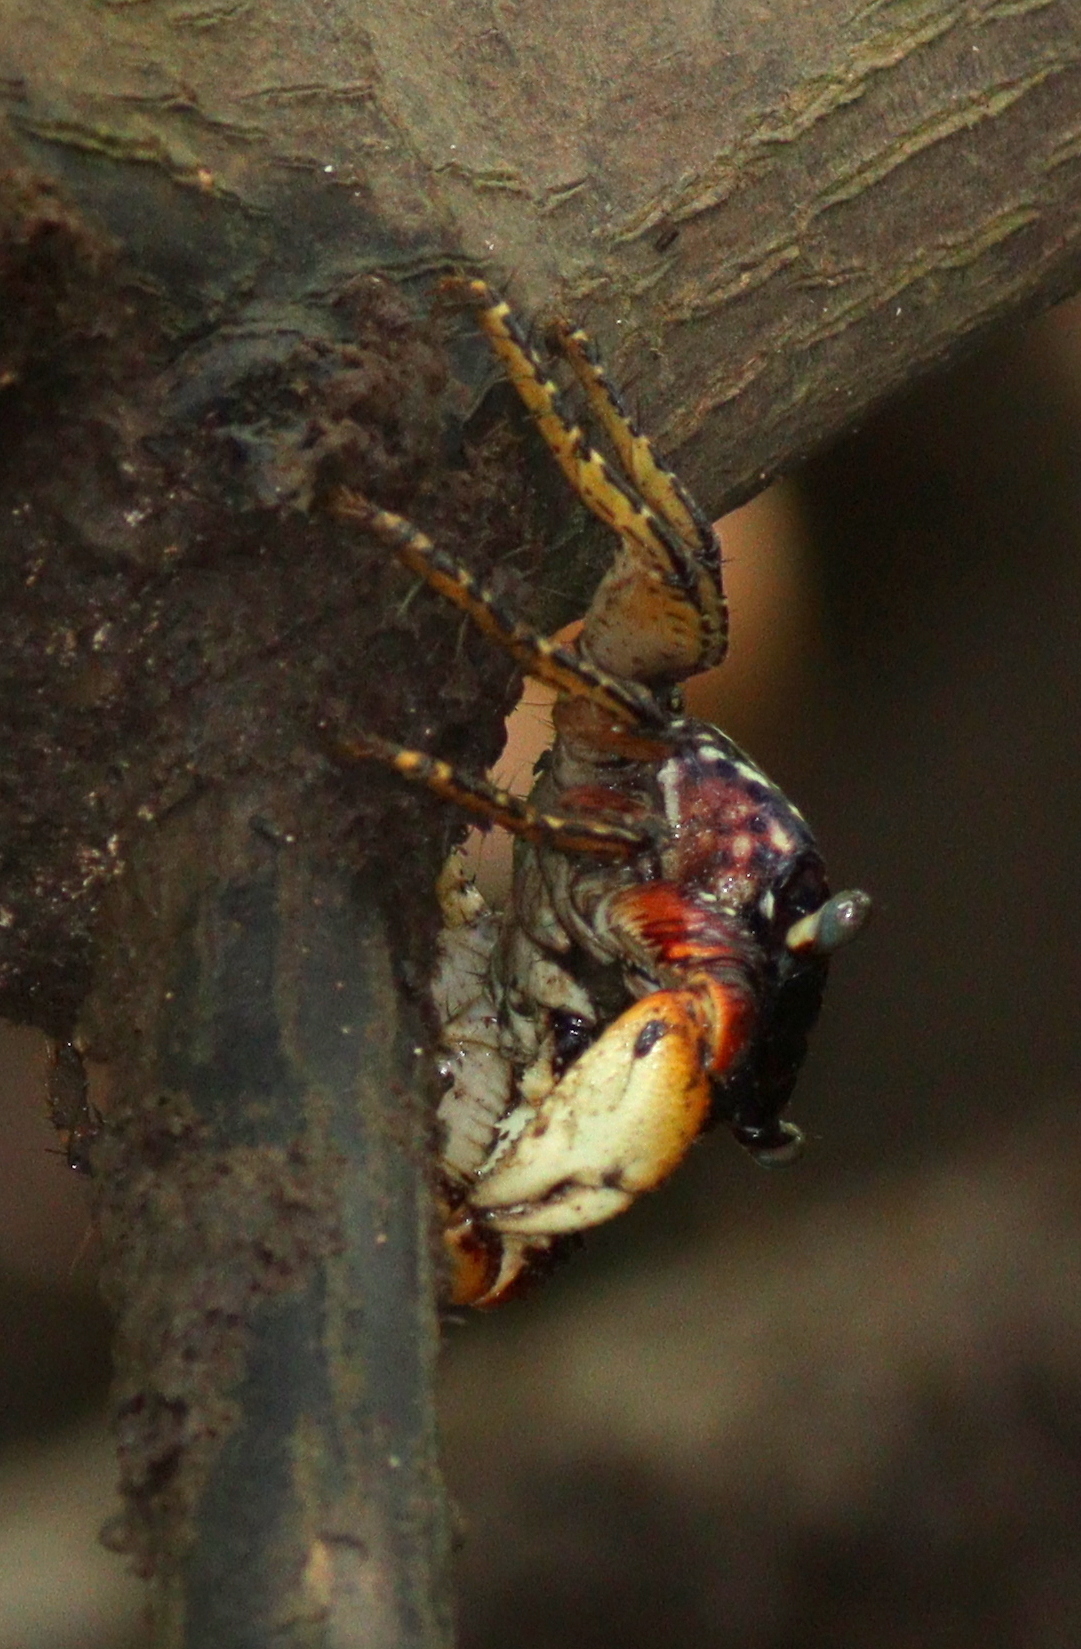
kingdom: Animalia
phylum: Arthropoda
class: Malacostraca
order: Decapoda
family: Grapsidae
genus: Goniopsis
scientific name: Goniopsis pulchra
